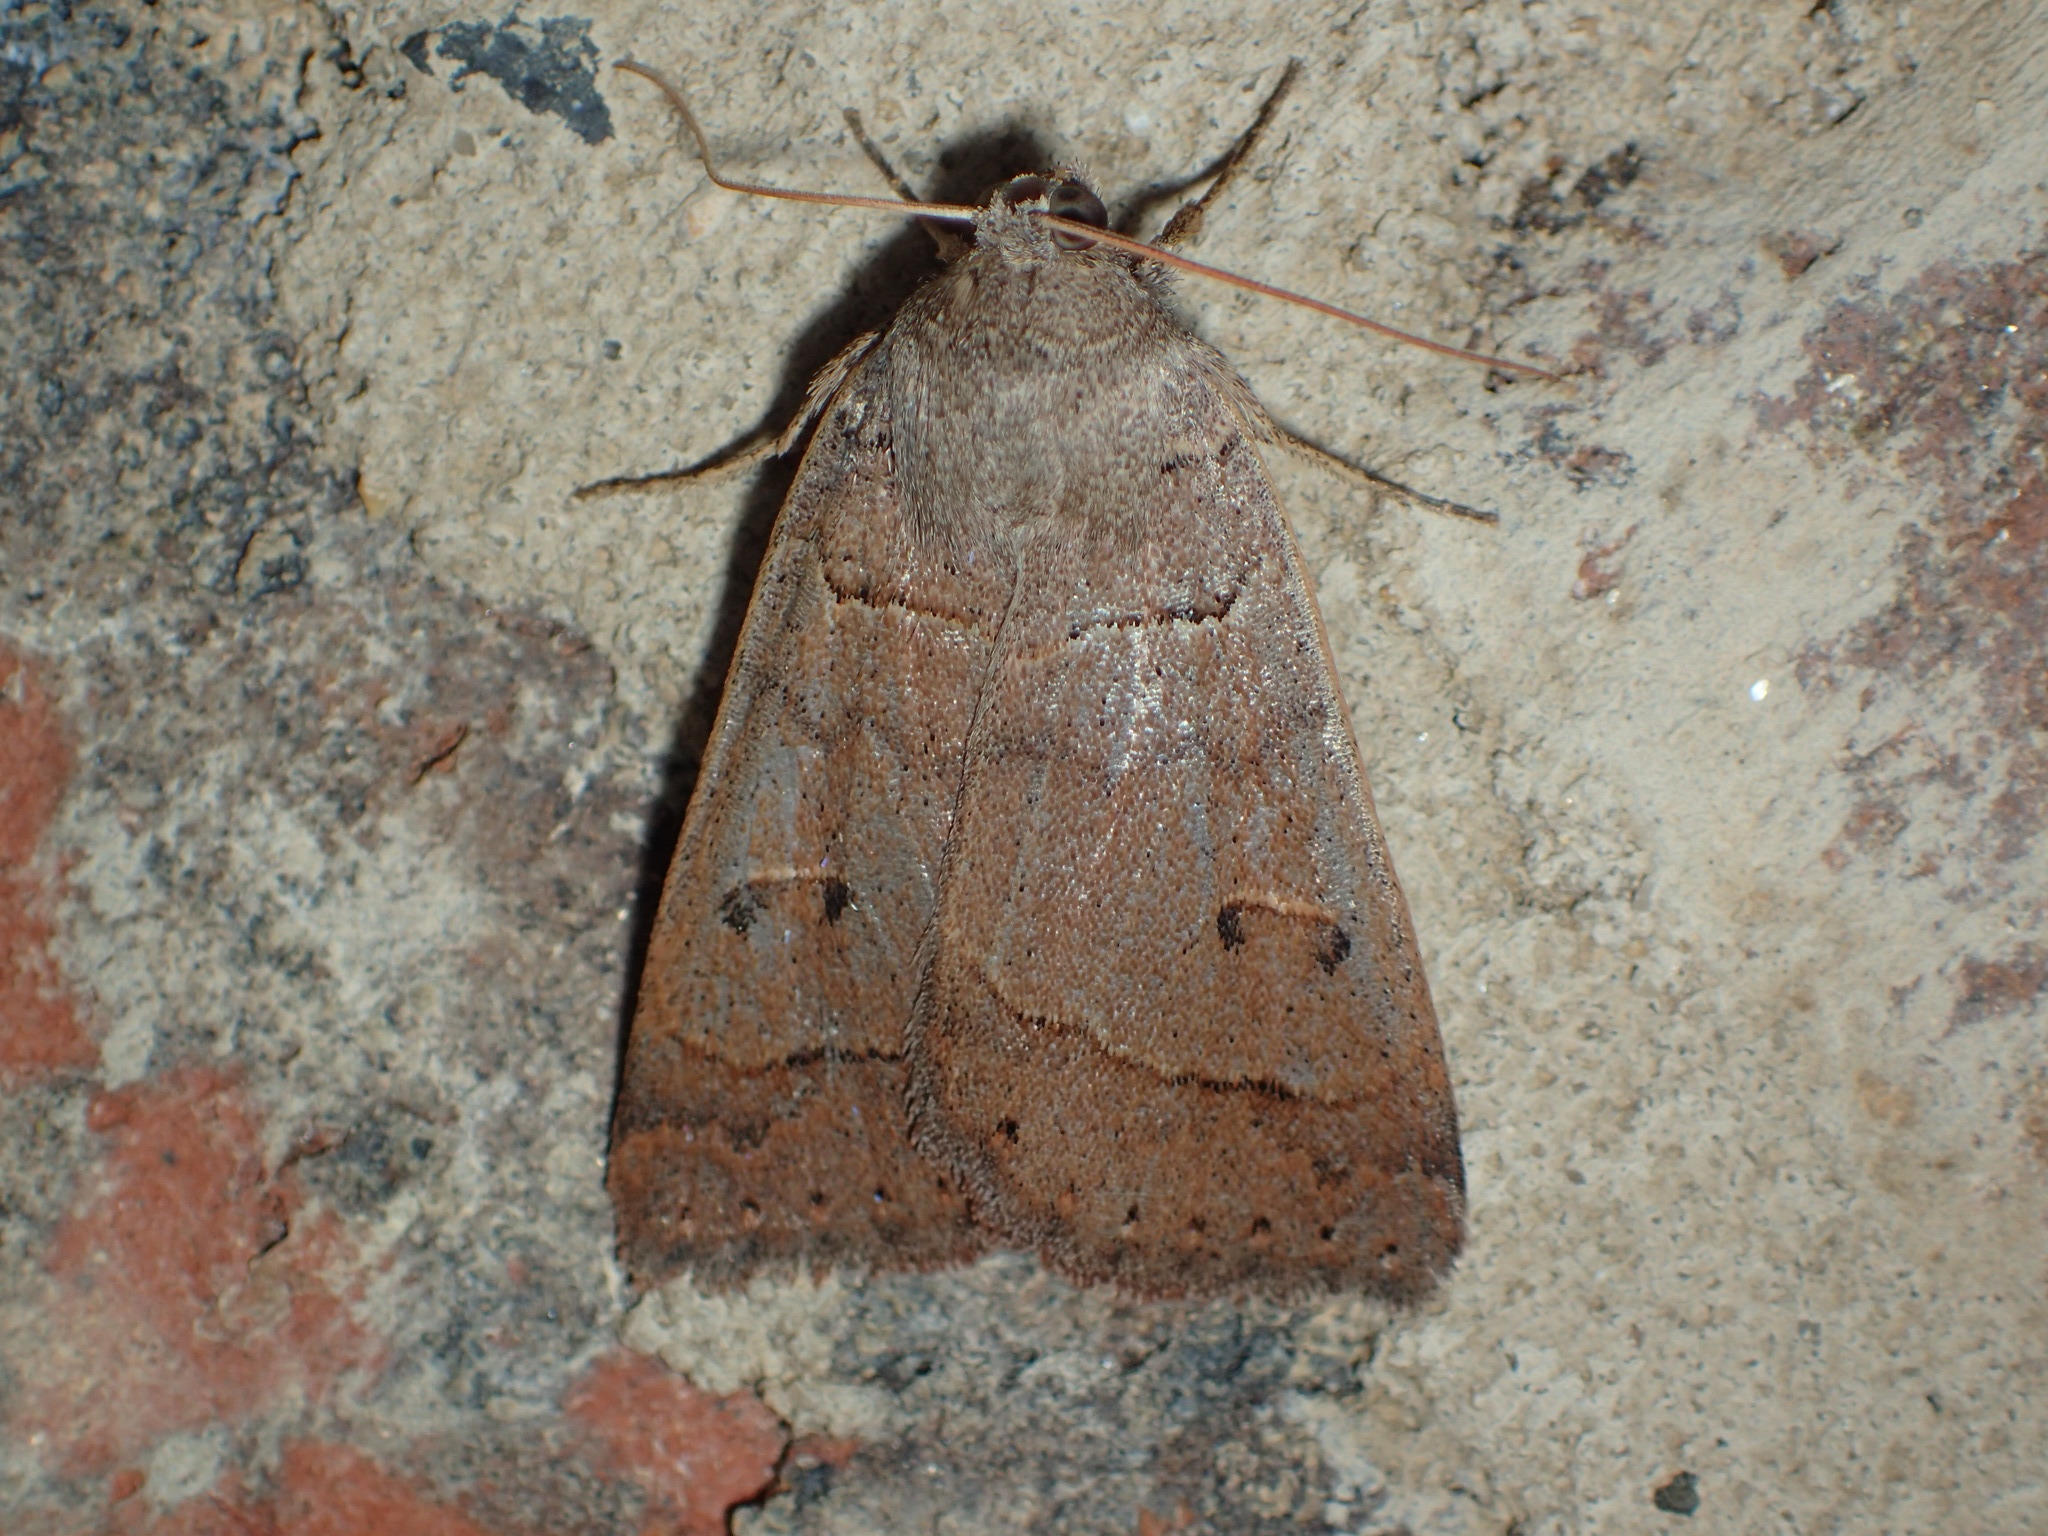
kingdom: Animalia
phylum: Arthropoda
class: Insecta
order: Lepidoptera
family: Erebidae
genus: Phoberia
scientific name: Phoberia atomaris
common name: Common oak moth
